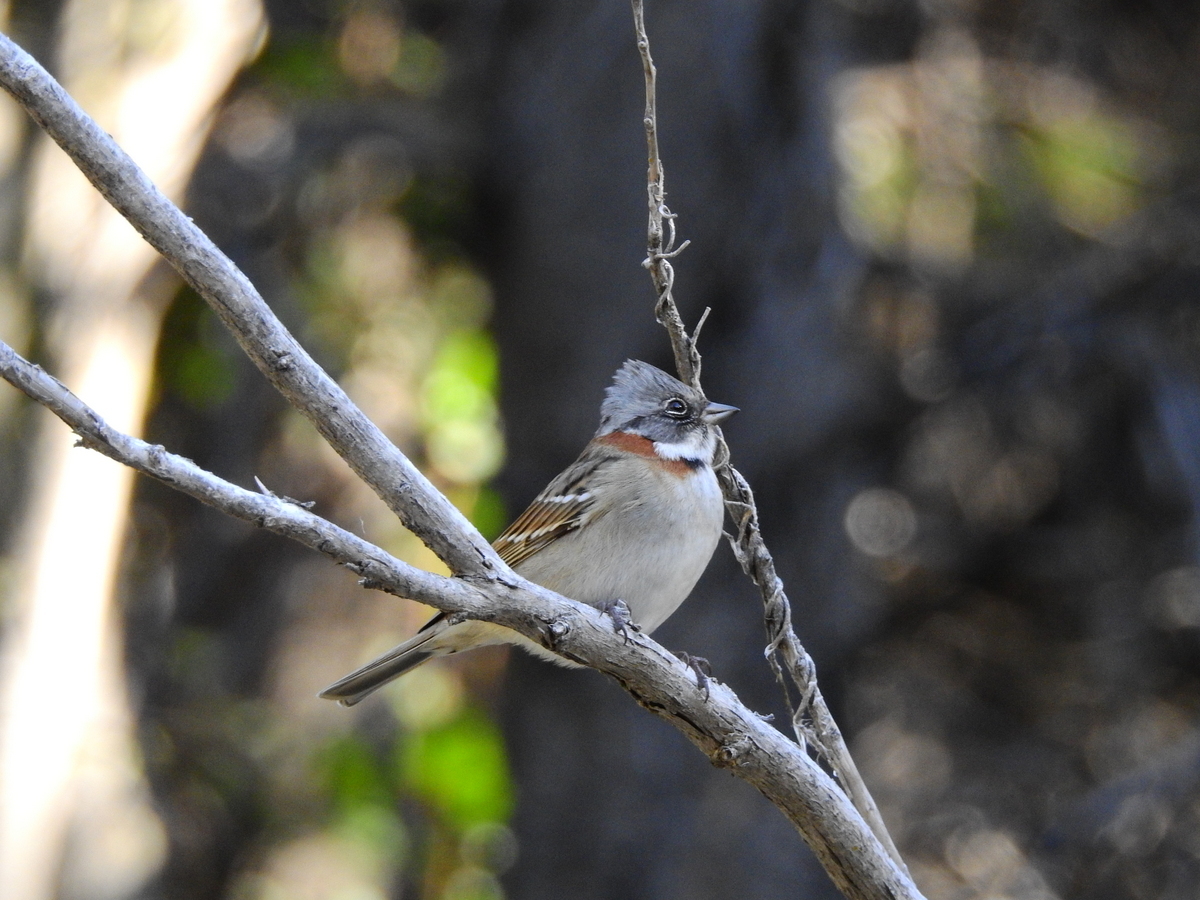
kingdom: Animalia
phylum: Chordata
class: Aves
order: Passeriformes
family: Passerellidae
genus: Zonotrichia
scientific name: Zonotrichia capensis
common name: Rufous-collared sparrow
